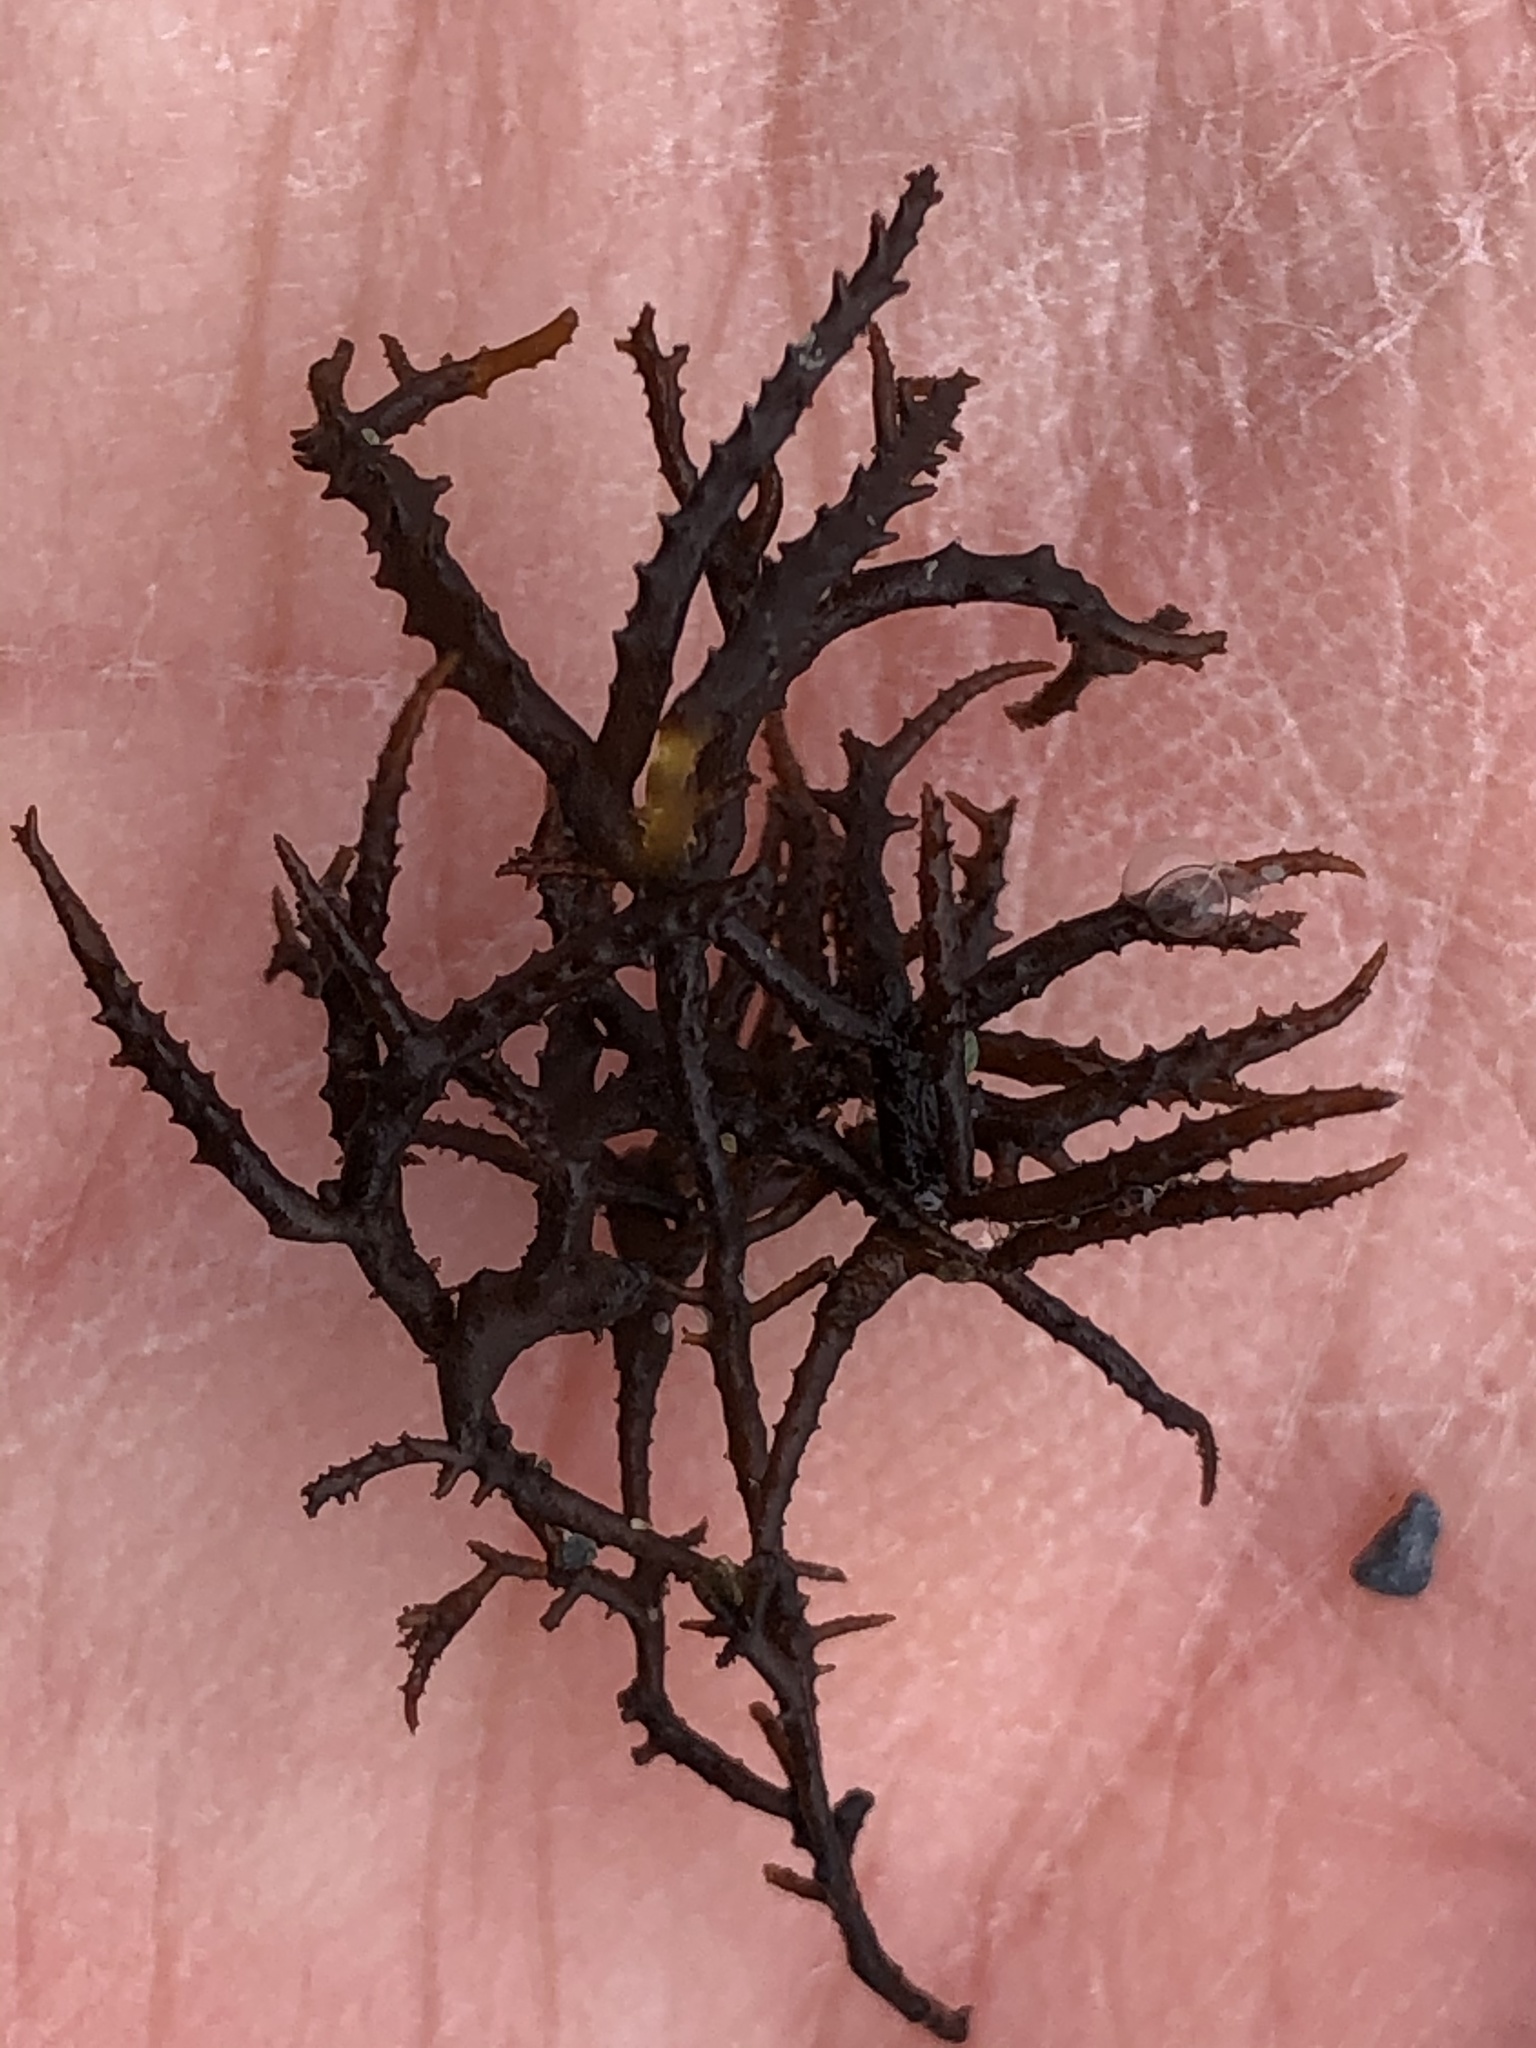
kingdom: Plantae
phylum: Rhodophyta
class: Florideophyceae
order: Gigartinales
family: Endocladiaceae
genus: Endocladia
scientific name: Endocladia muricata
